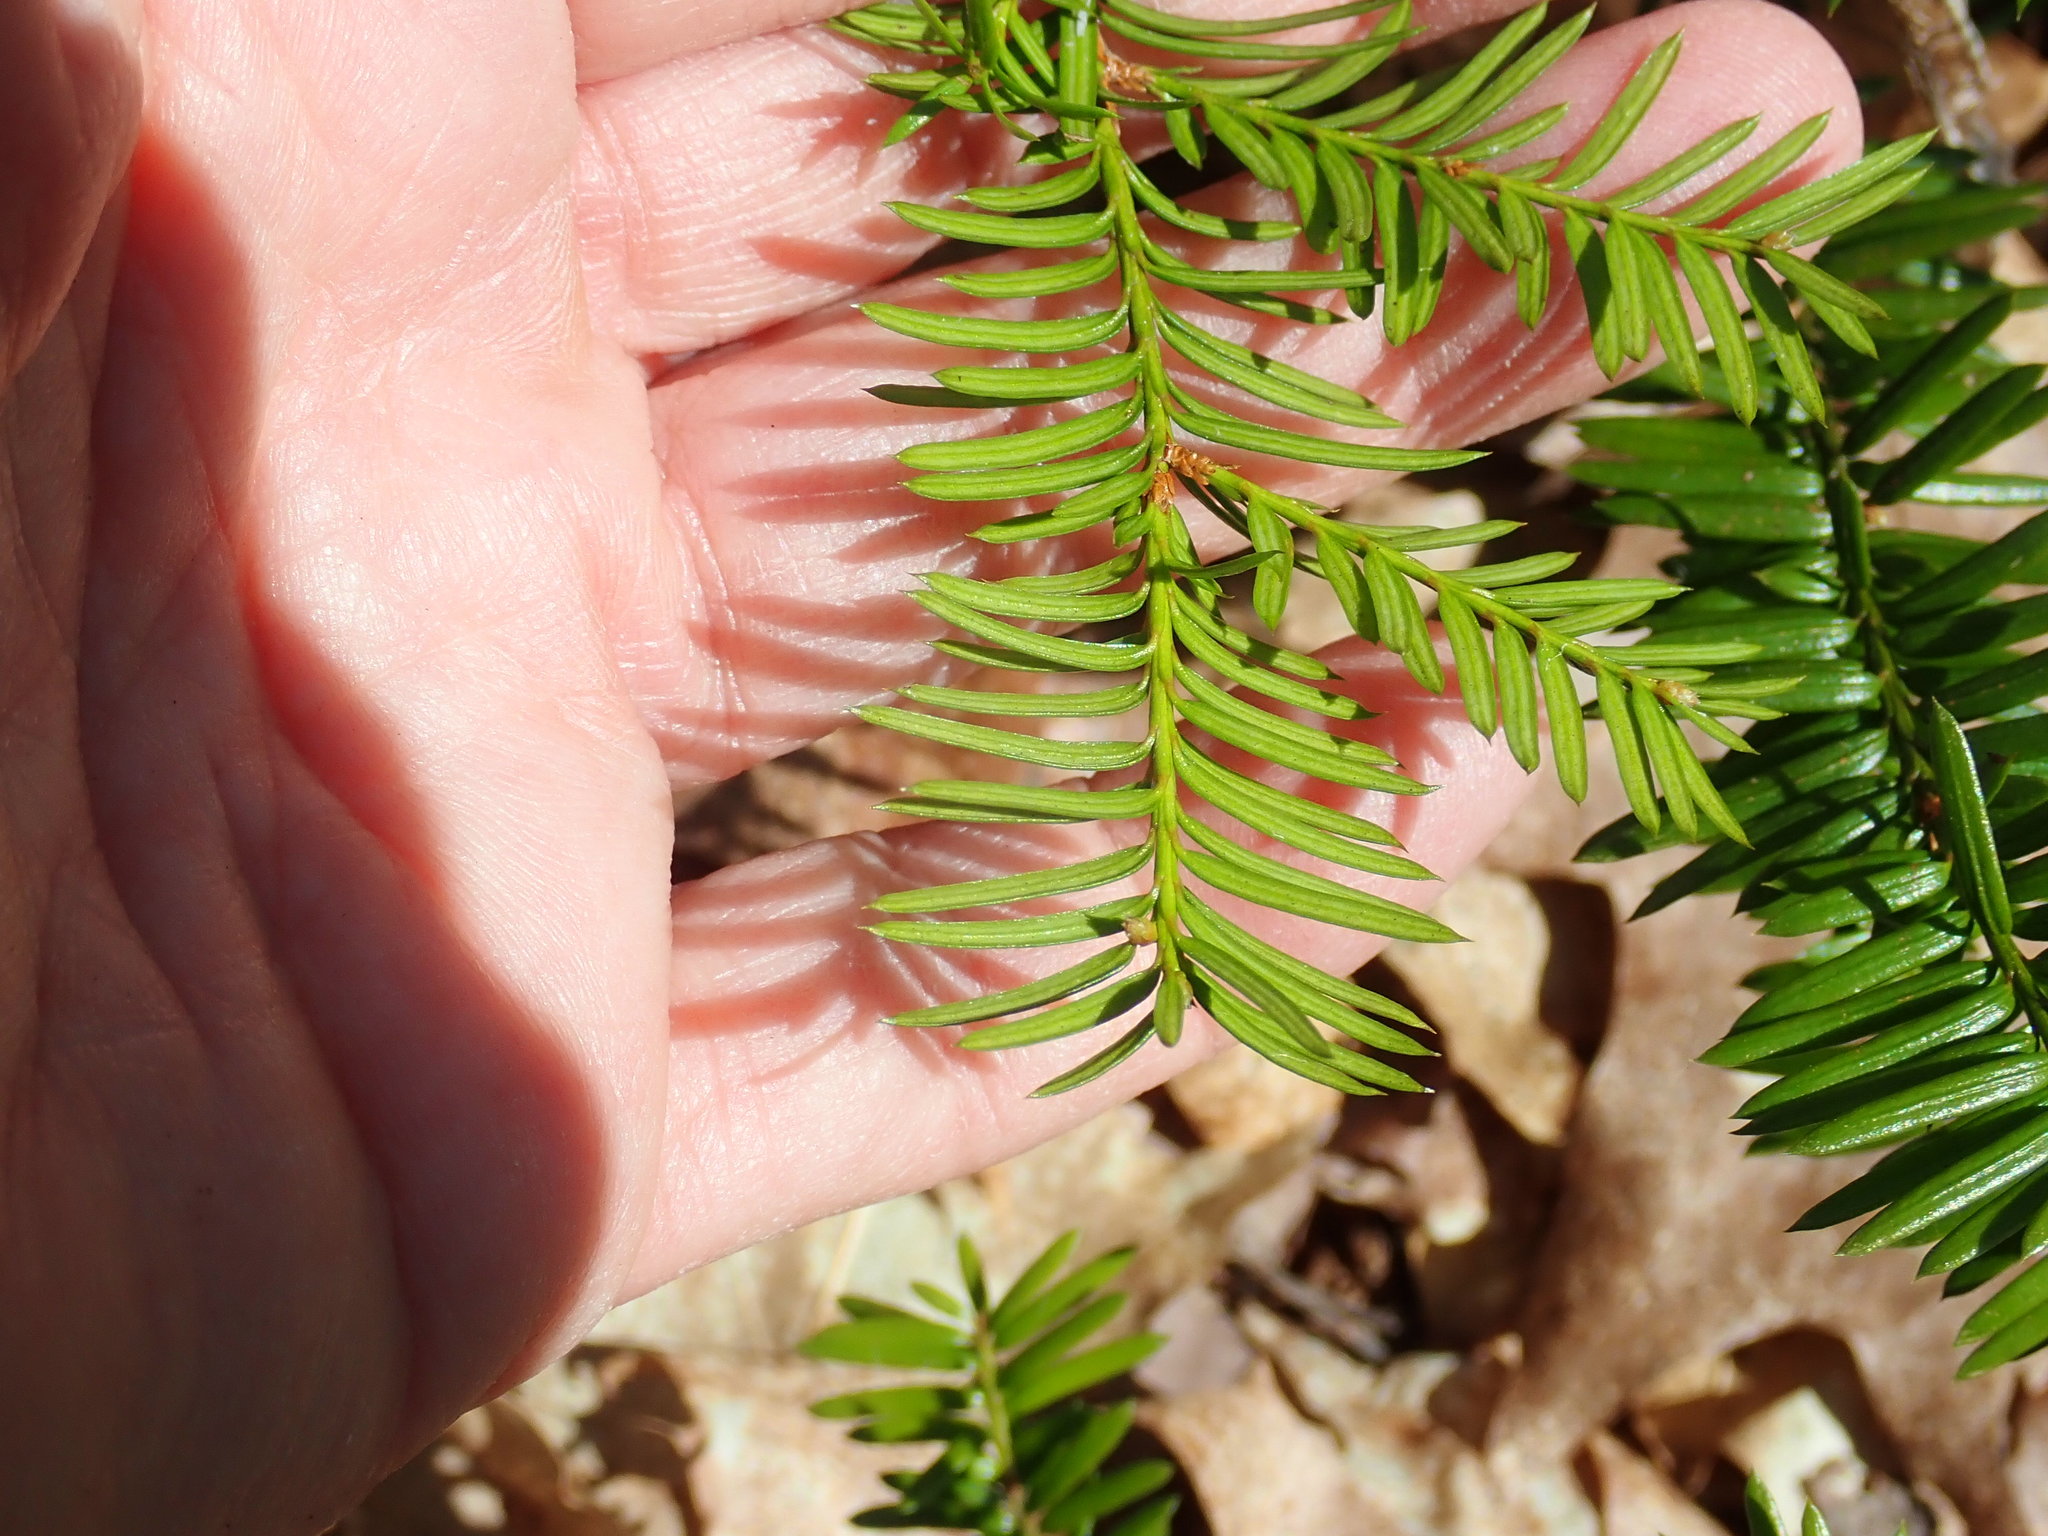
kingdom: Plantae
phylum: Tracheophyta
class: Pinopsida
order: Pinales
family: Taxaceae
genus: Taxus
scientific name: Taxus canadensis
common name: American yew
